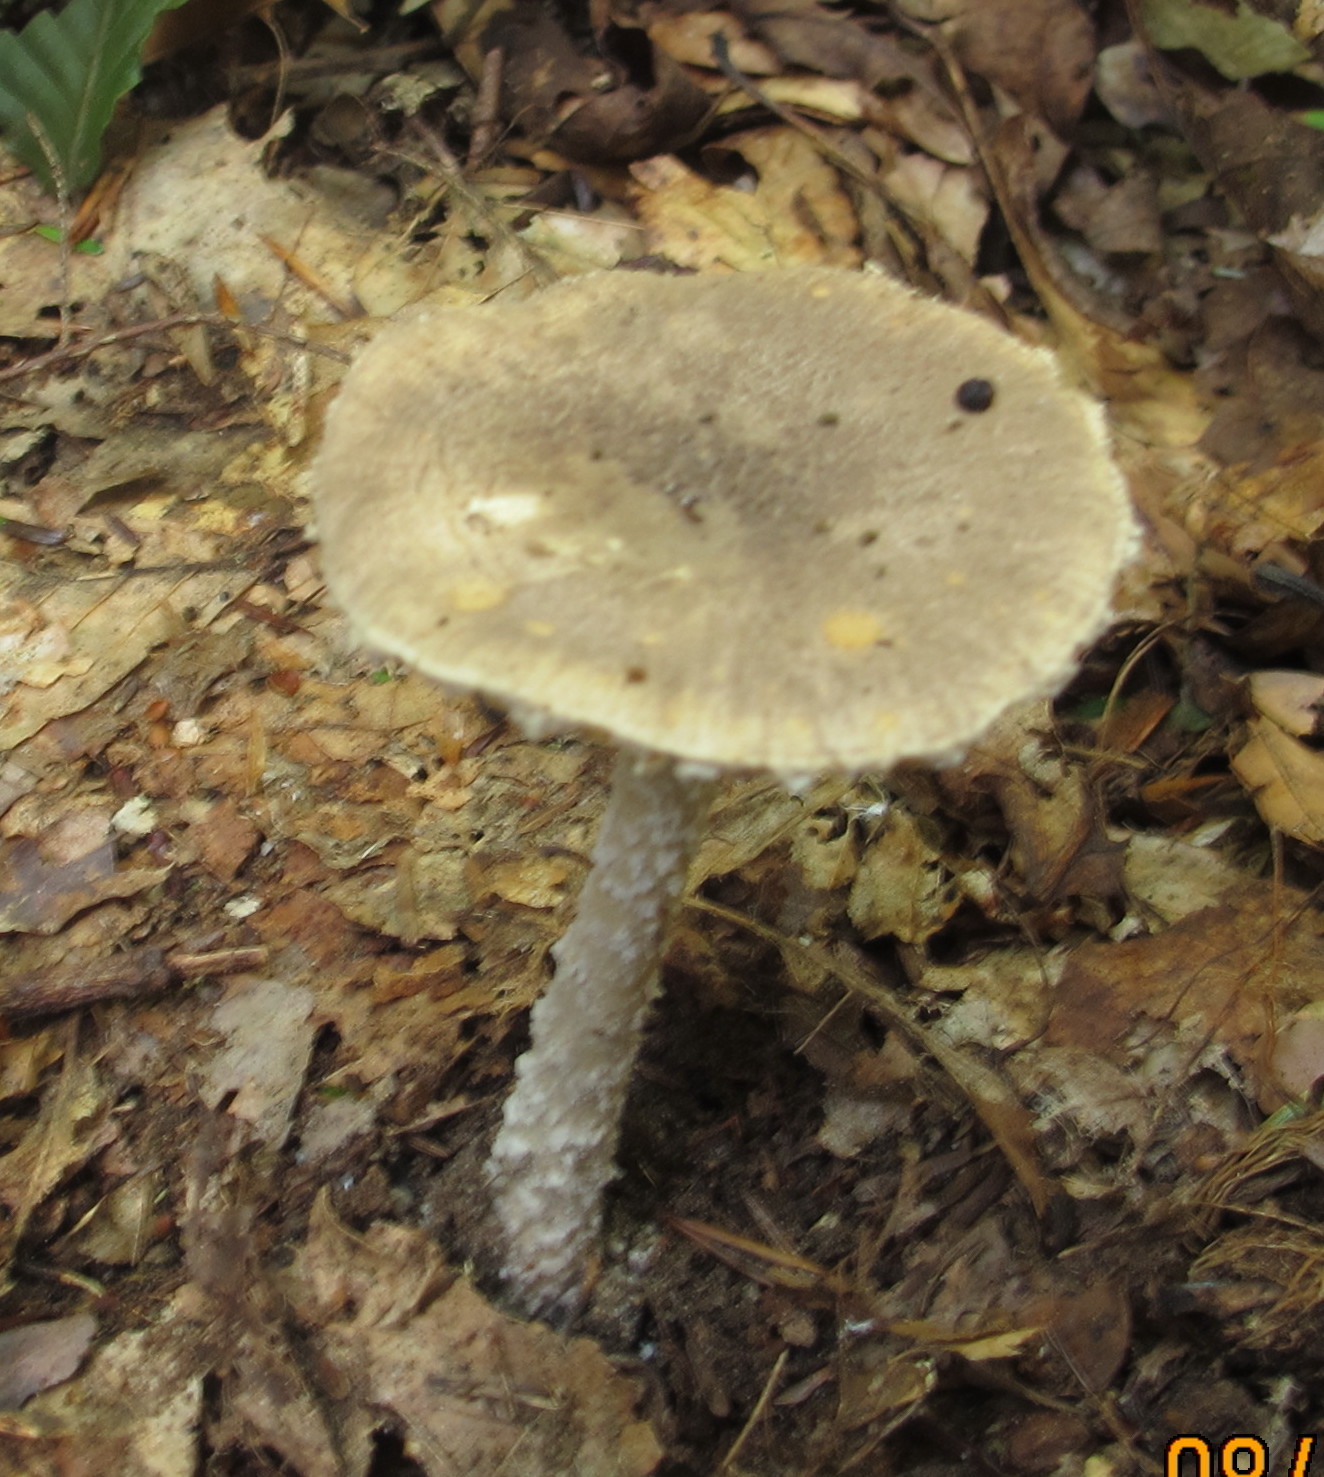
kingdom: Fungi
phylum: Basidiomycota
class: Agaricomycetes
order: Agaricales
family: Amanitaceae
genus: Amanita
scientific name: Amanita onusta
